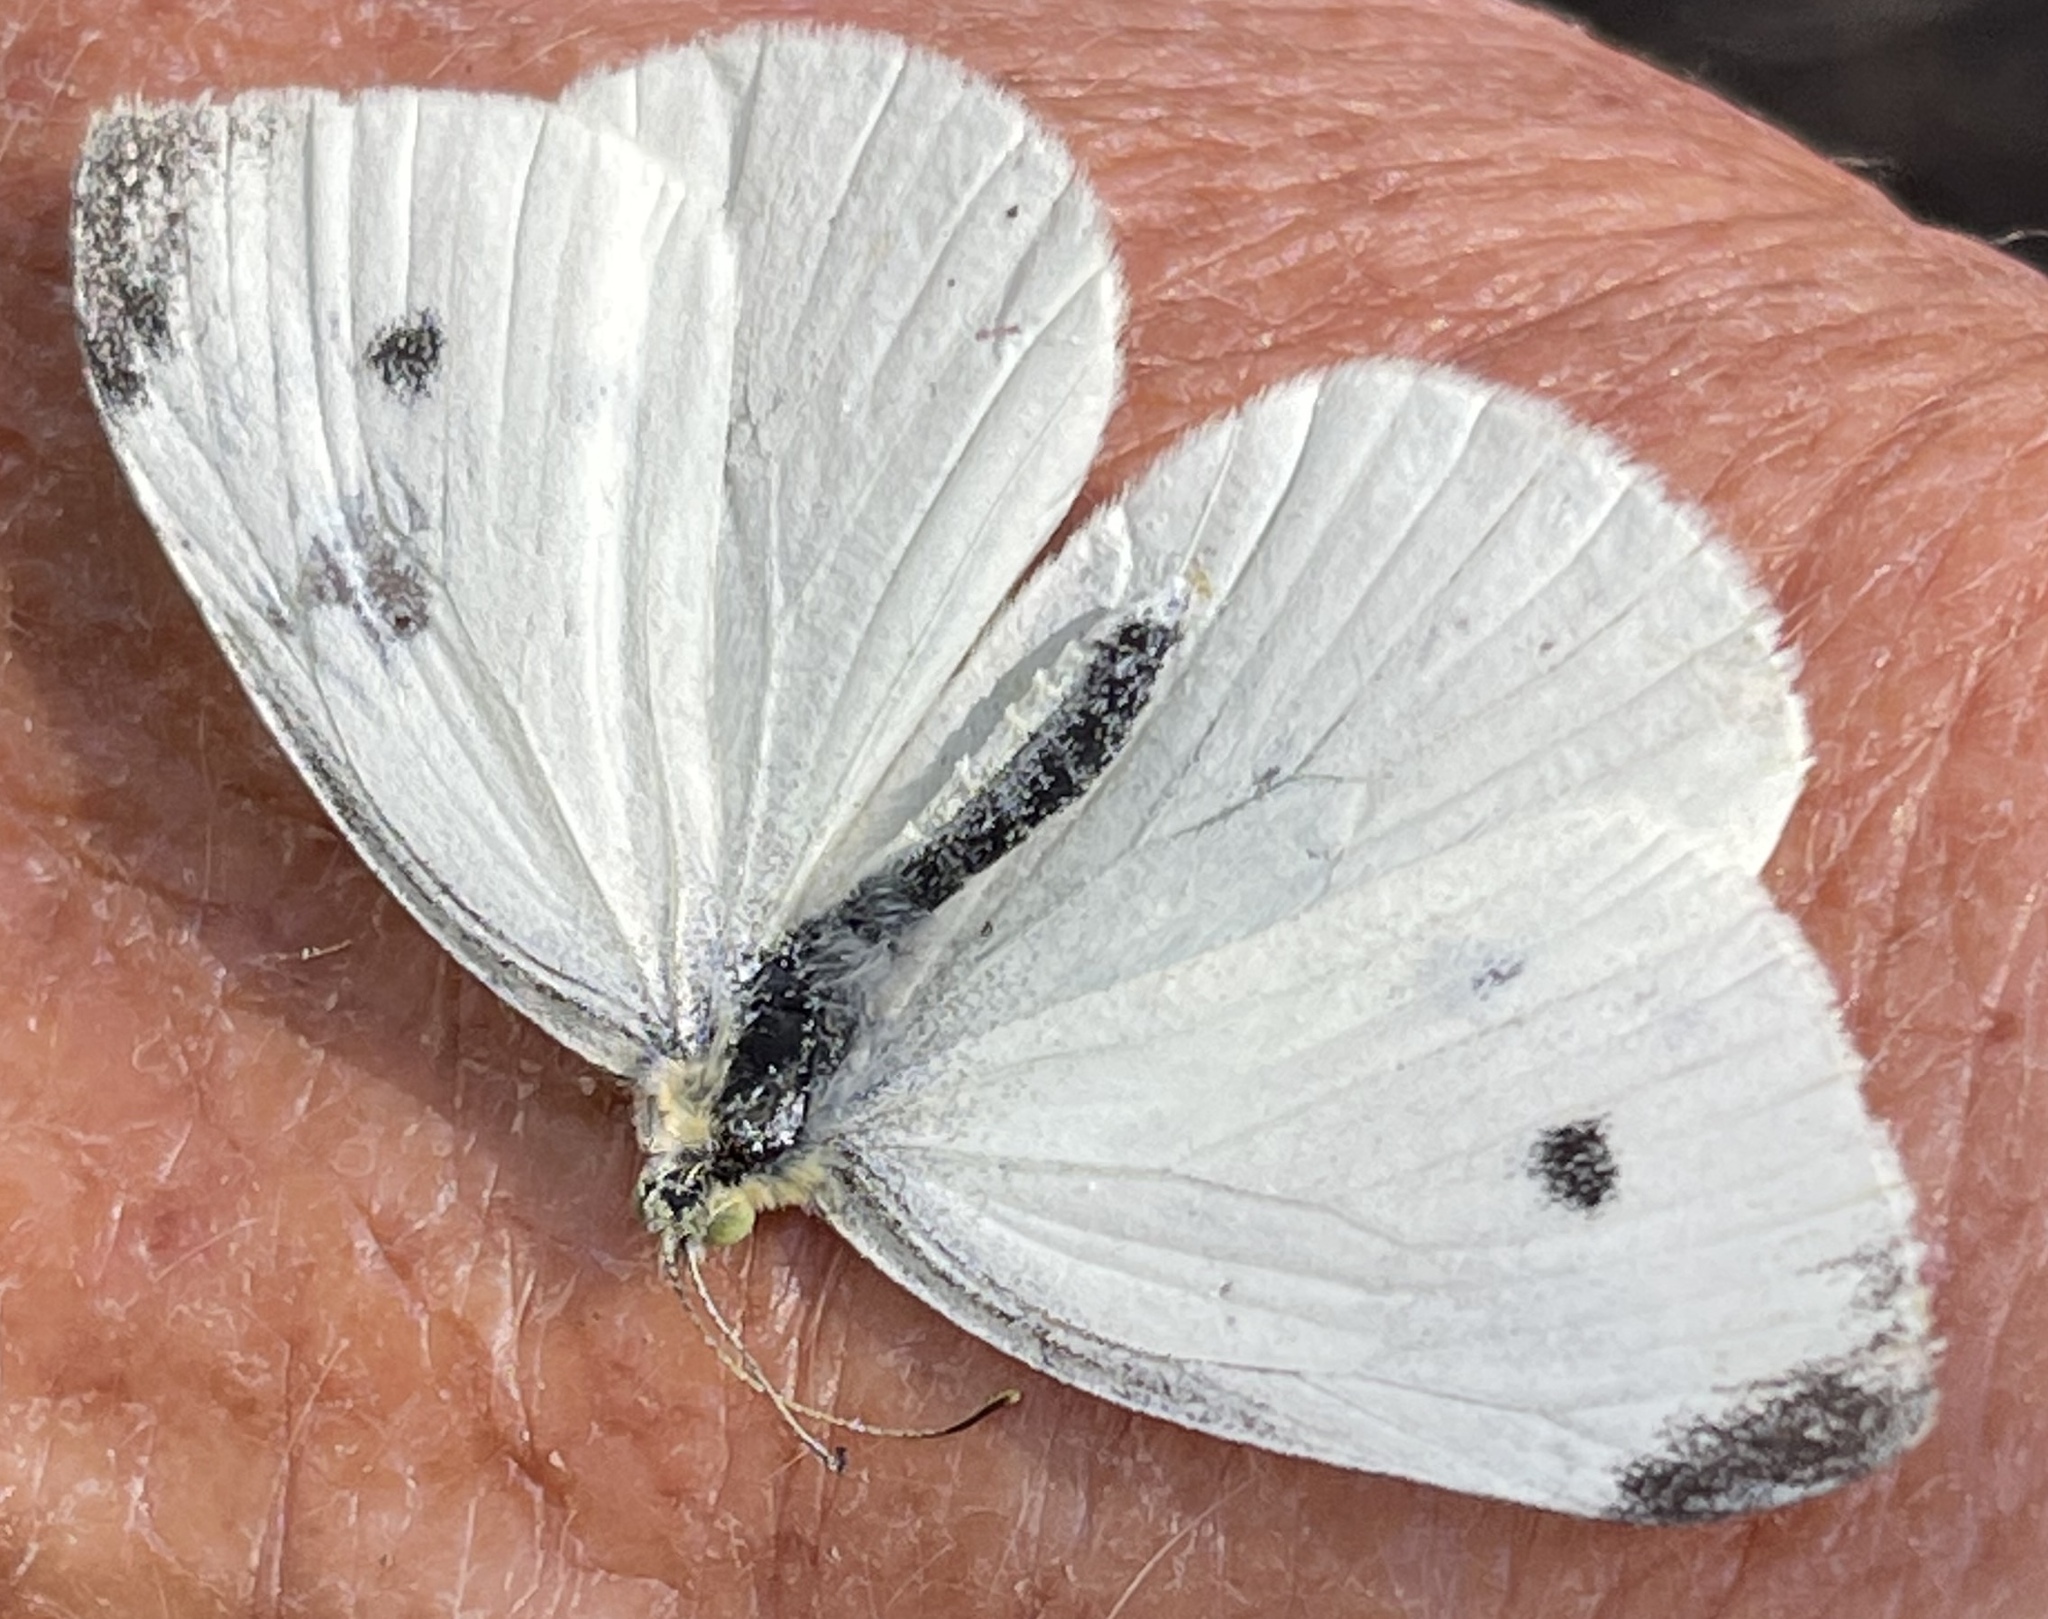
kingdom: Animalia
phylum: Arthropoda
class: Insecta
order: Lepidoptera
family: Pieridae
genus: Pieris
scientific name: Pieris rapae
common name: Small white
